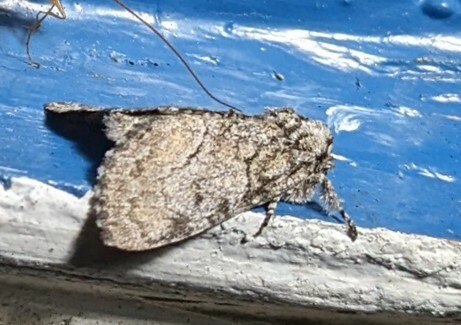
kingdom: Animalia
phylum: Arthropoda
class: Insecta
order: Lepidoptera
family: Noctuidae
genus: Raphia
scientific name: Raphia frater
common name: Brother
